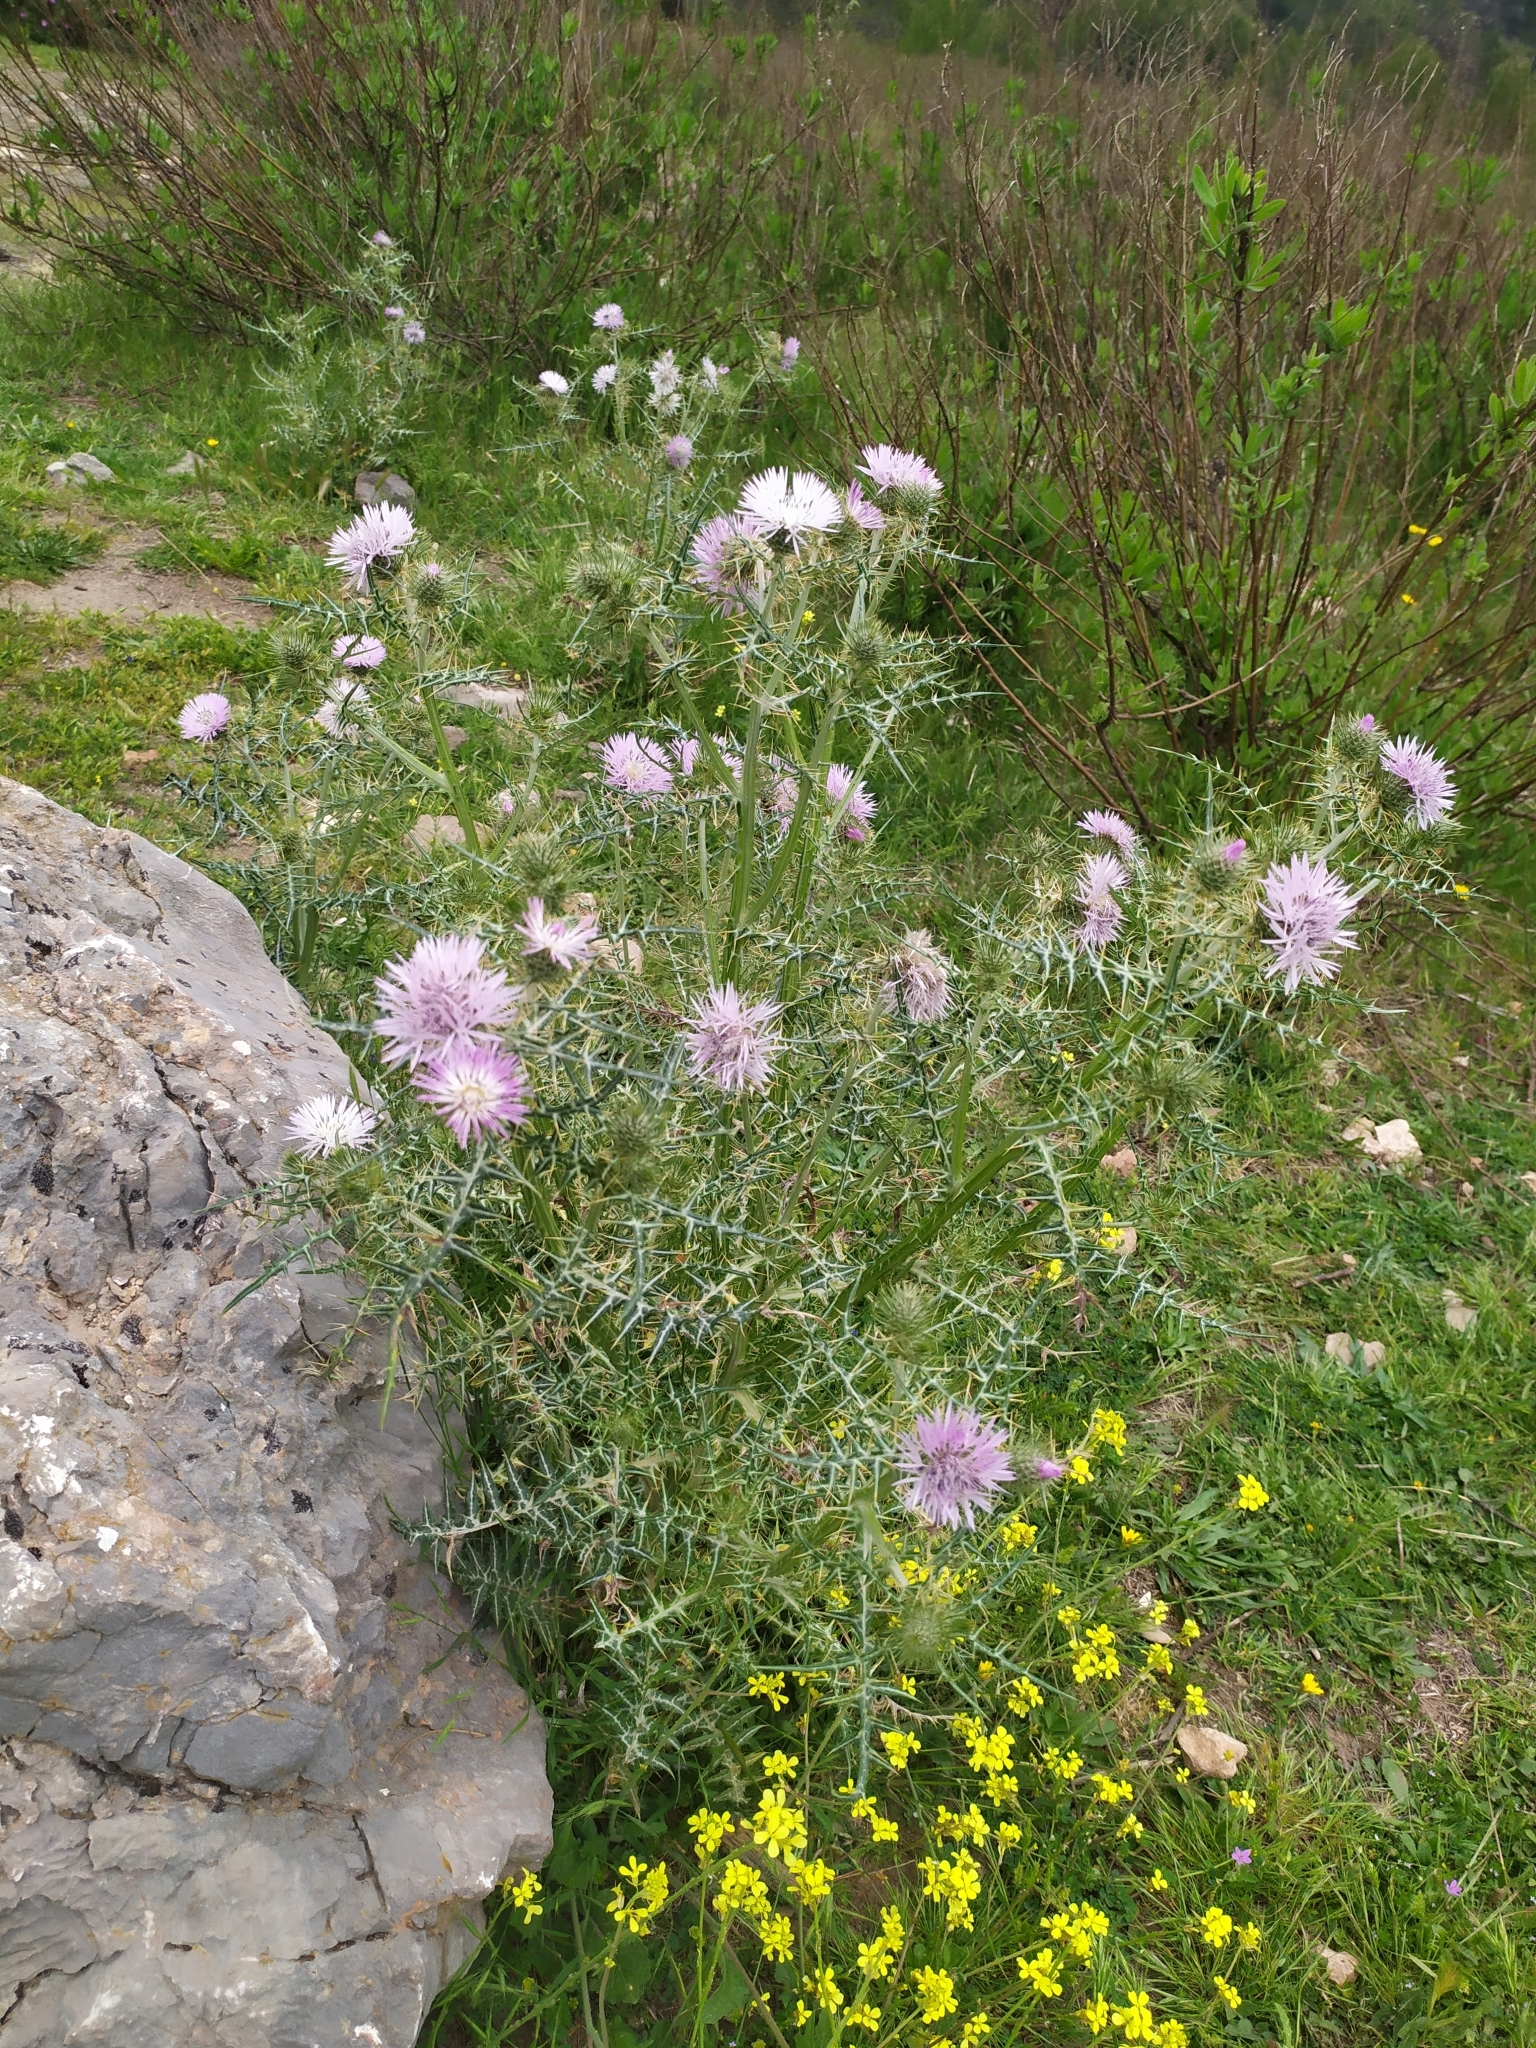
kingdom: Plantae
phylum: Tracheophyta
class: Magnoliopsida
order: Asterales
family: Asteraceae
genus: Galactites
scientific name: Galactites tomentosa
